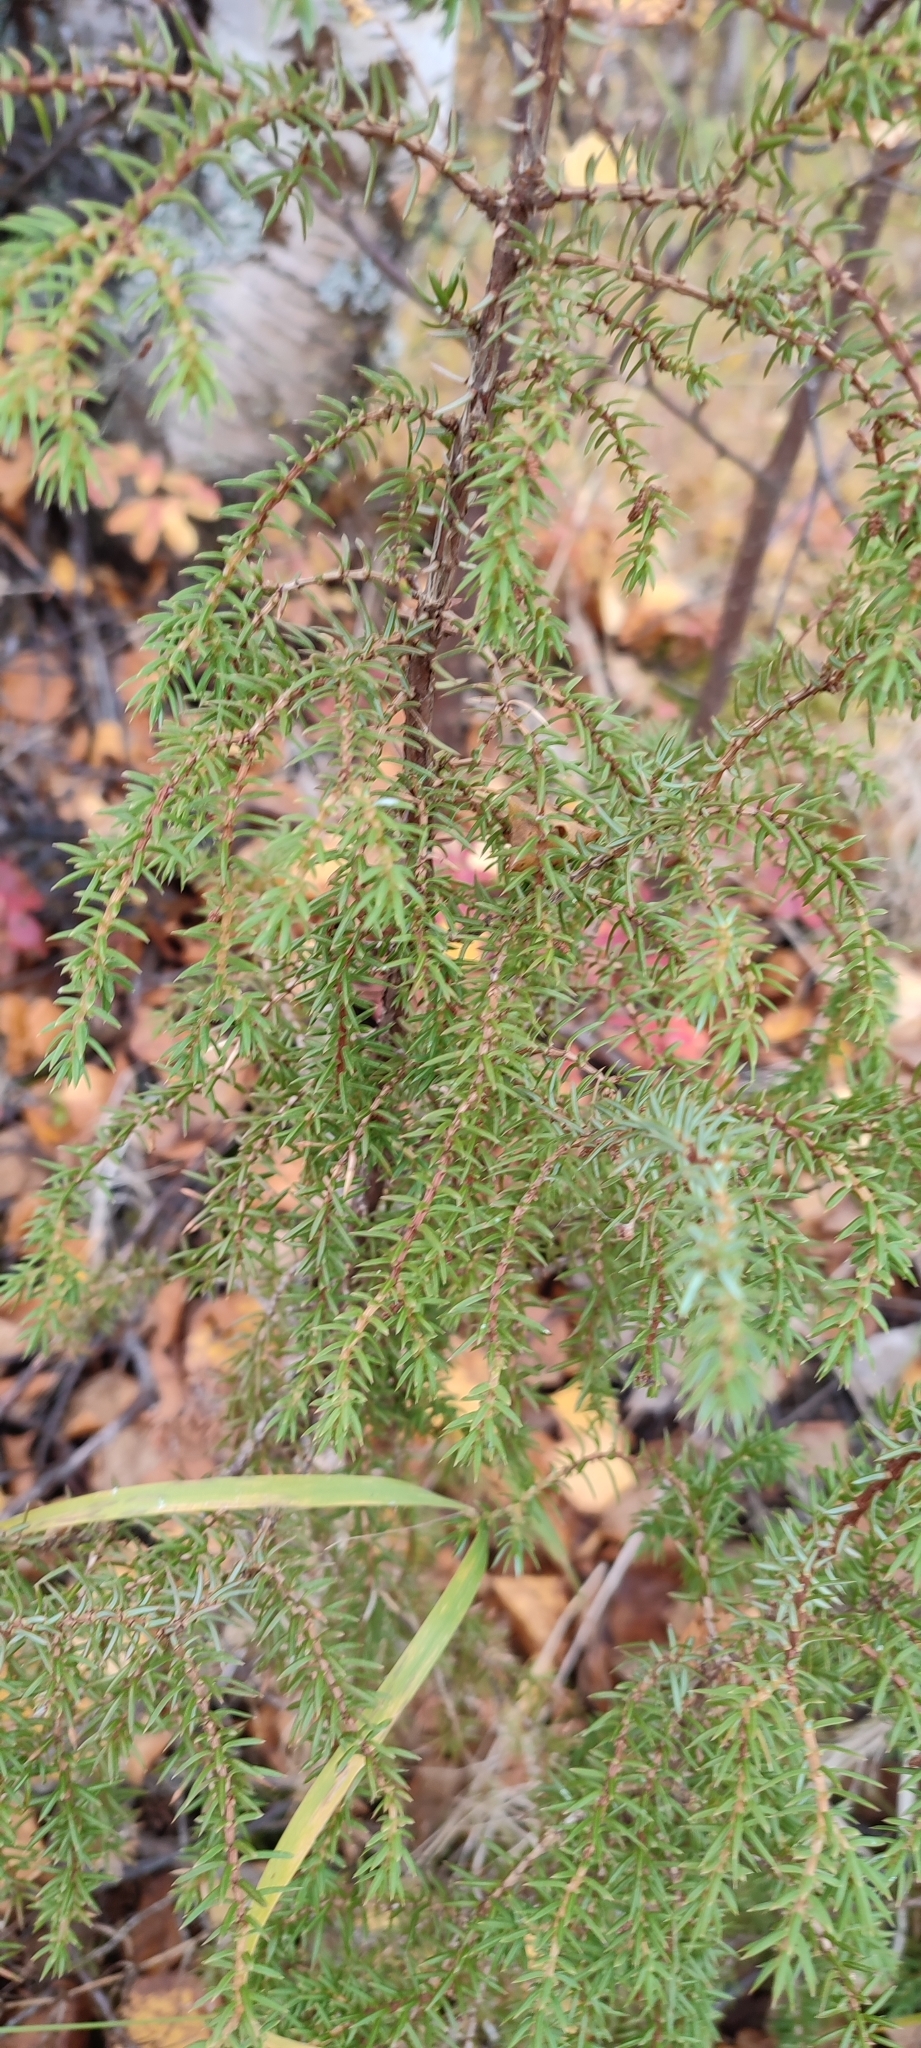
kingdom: Plantae
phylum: Tracheophyta
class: Pinopsida
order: Pinales
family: Cupressaceae
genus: Juniperus
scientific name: Juniperus communis
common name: Common juniper
